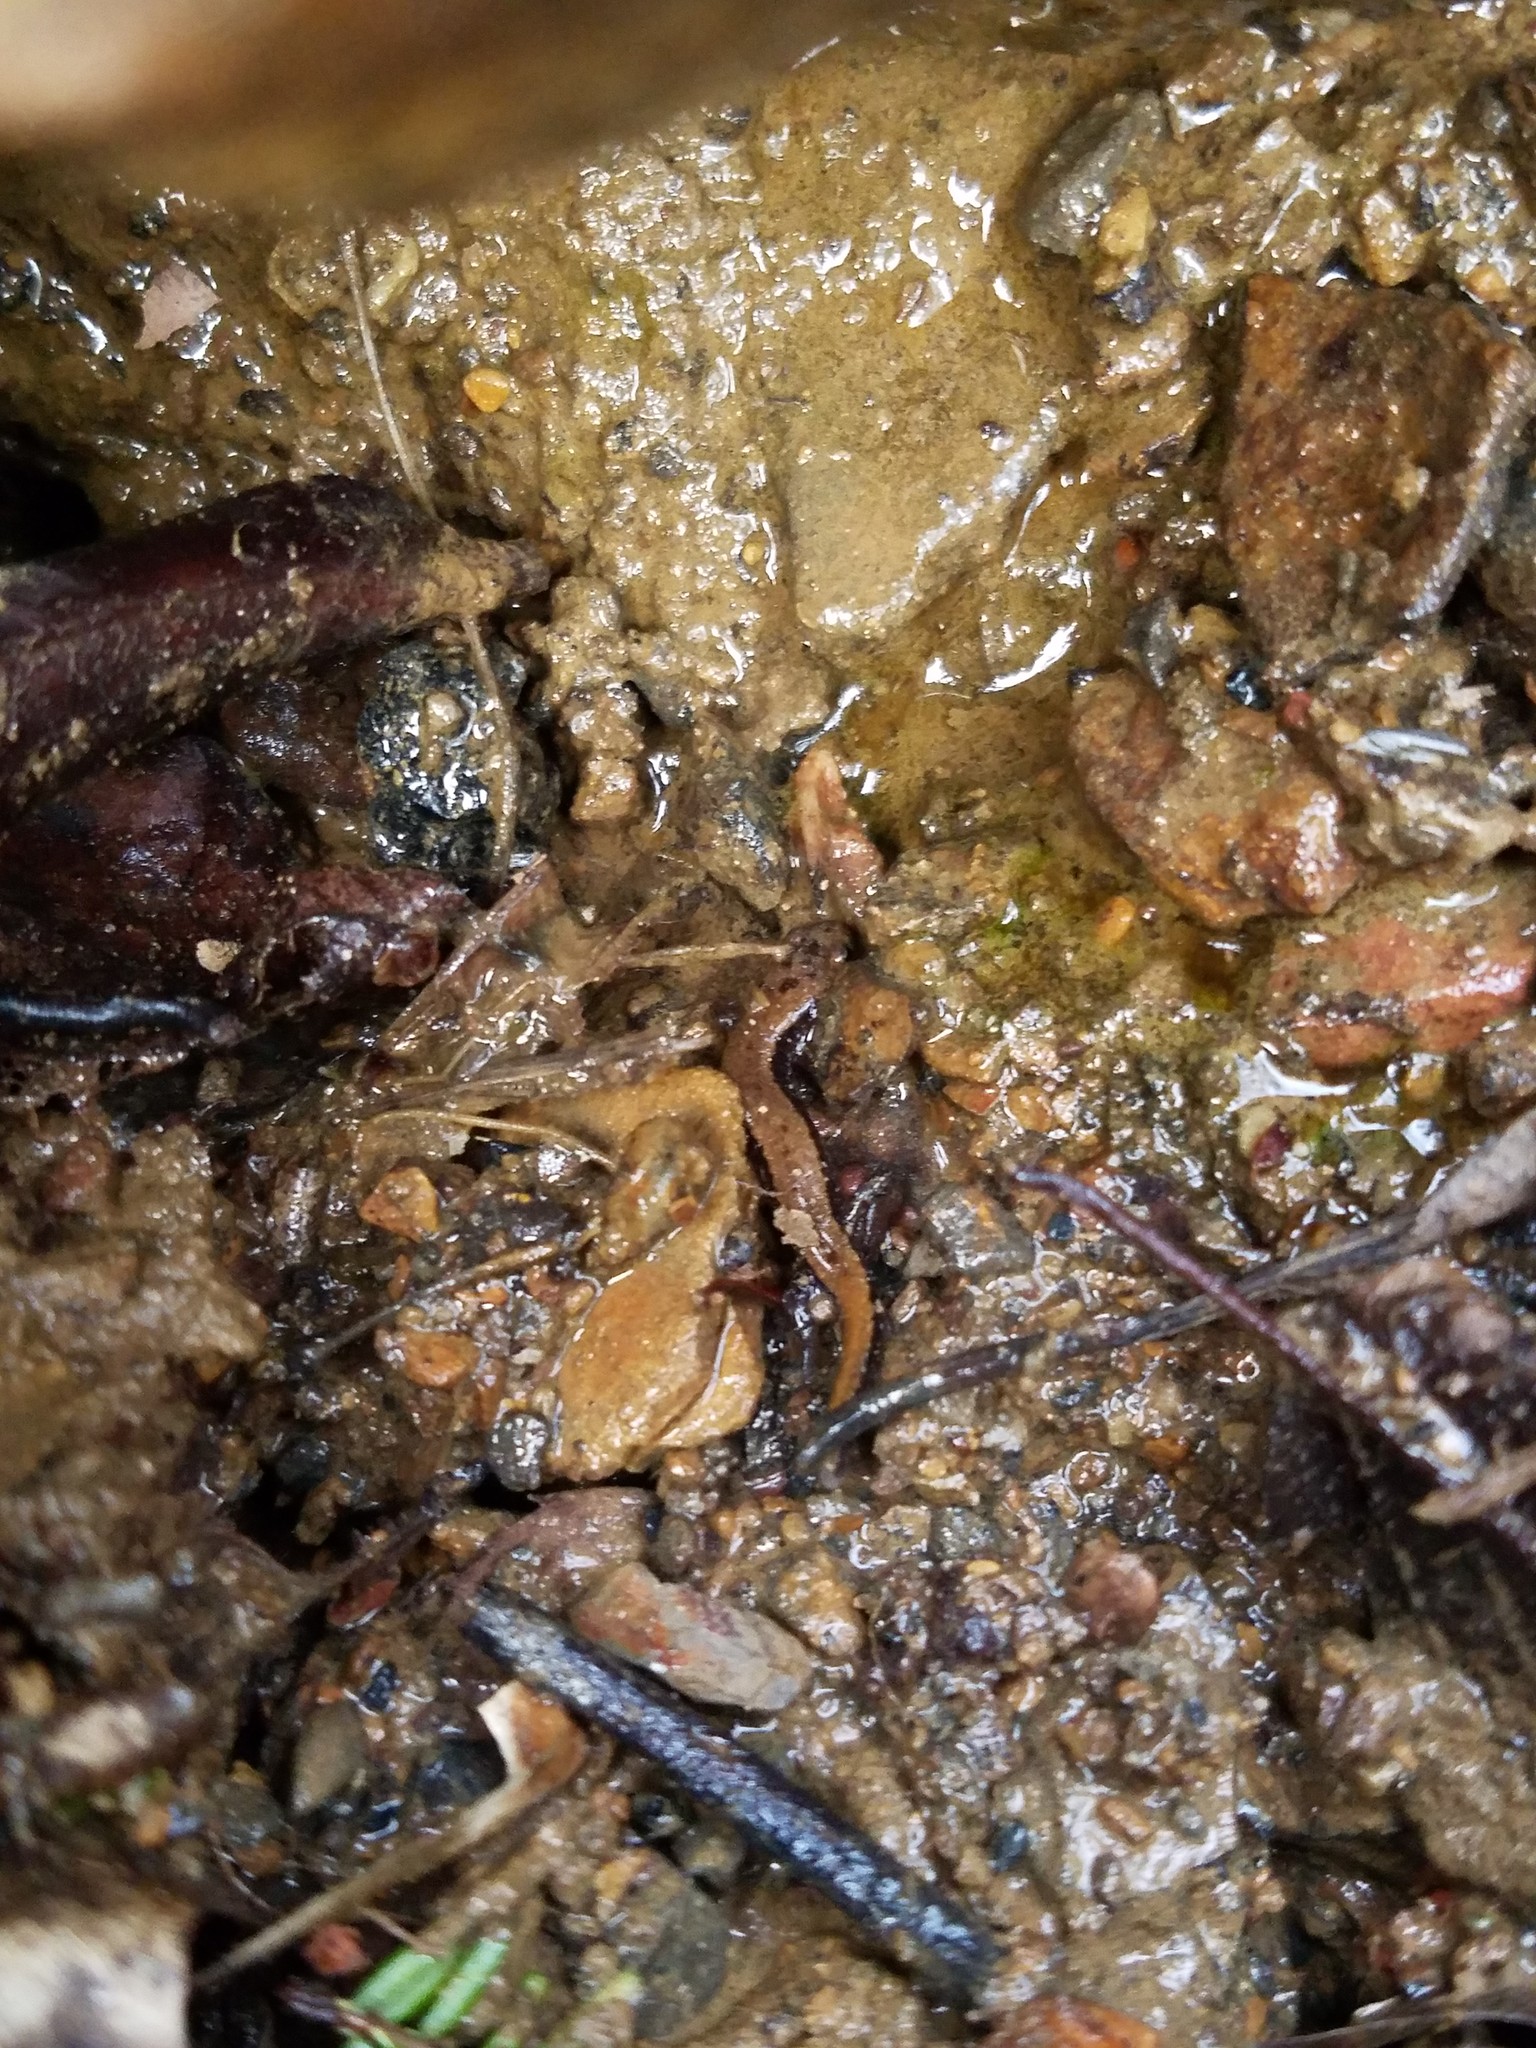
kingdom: Animalia
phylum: Chordata
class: Amphibia
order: Caudata
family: Plethodontidae
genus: Desmognathus
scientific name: Desmognathus ochrophaeus
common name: Allegheny mountain dusky salamander
